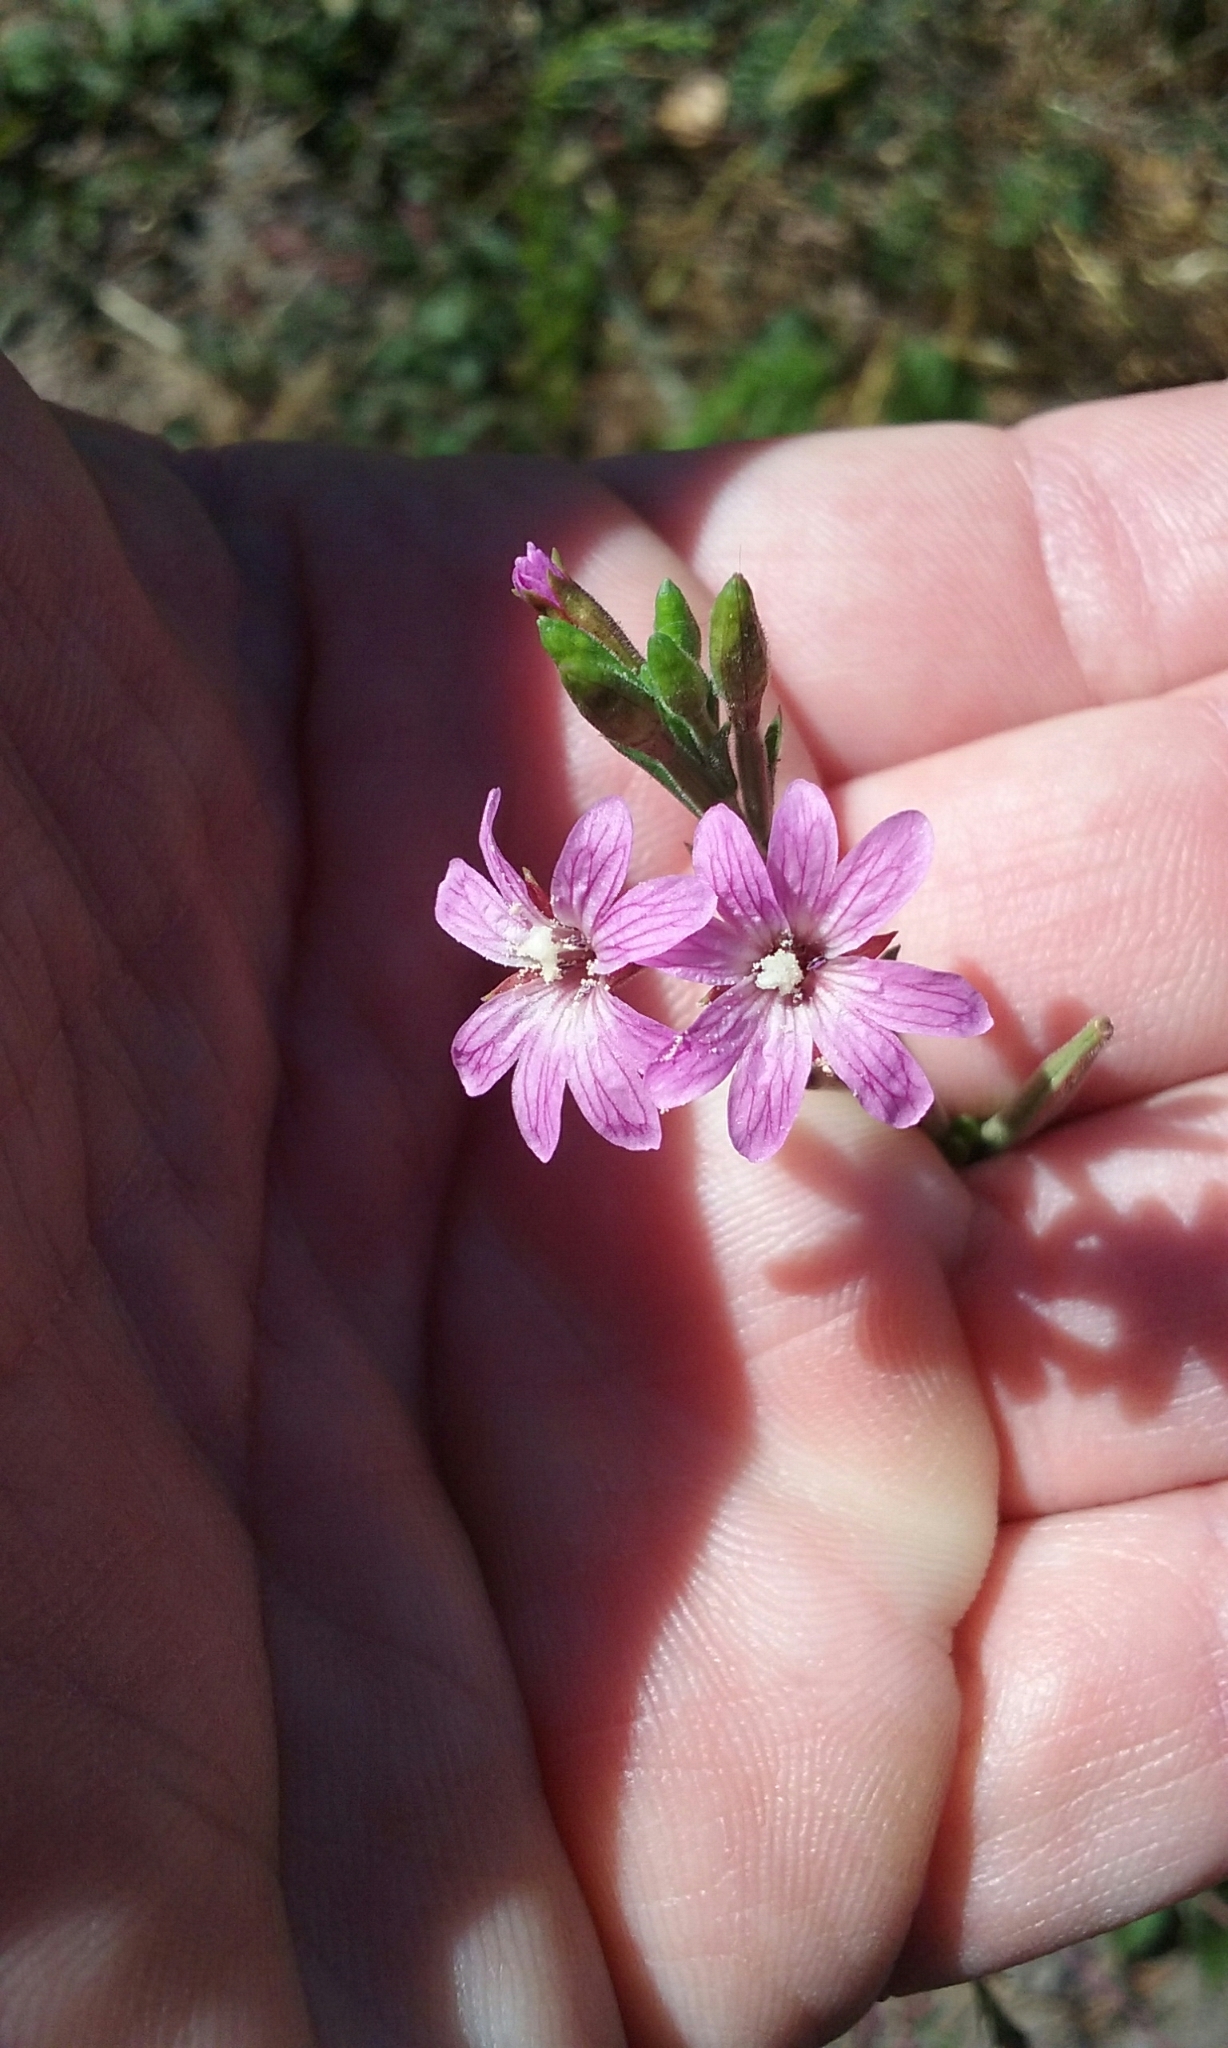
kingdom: Plantae
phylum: Tracheophyta
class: Magnoliopsida
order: Myrtales
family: Onagraceae
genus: Epilobium
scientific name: Epilobium brachycarpum
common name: Annual willowherb
